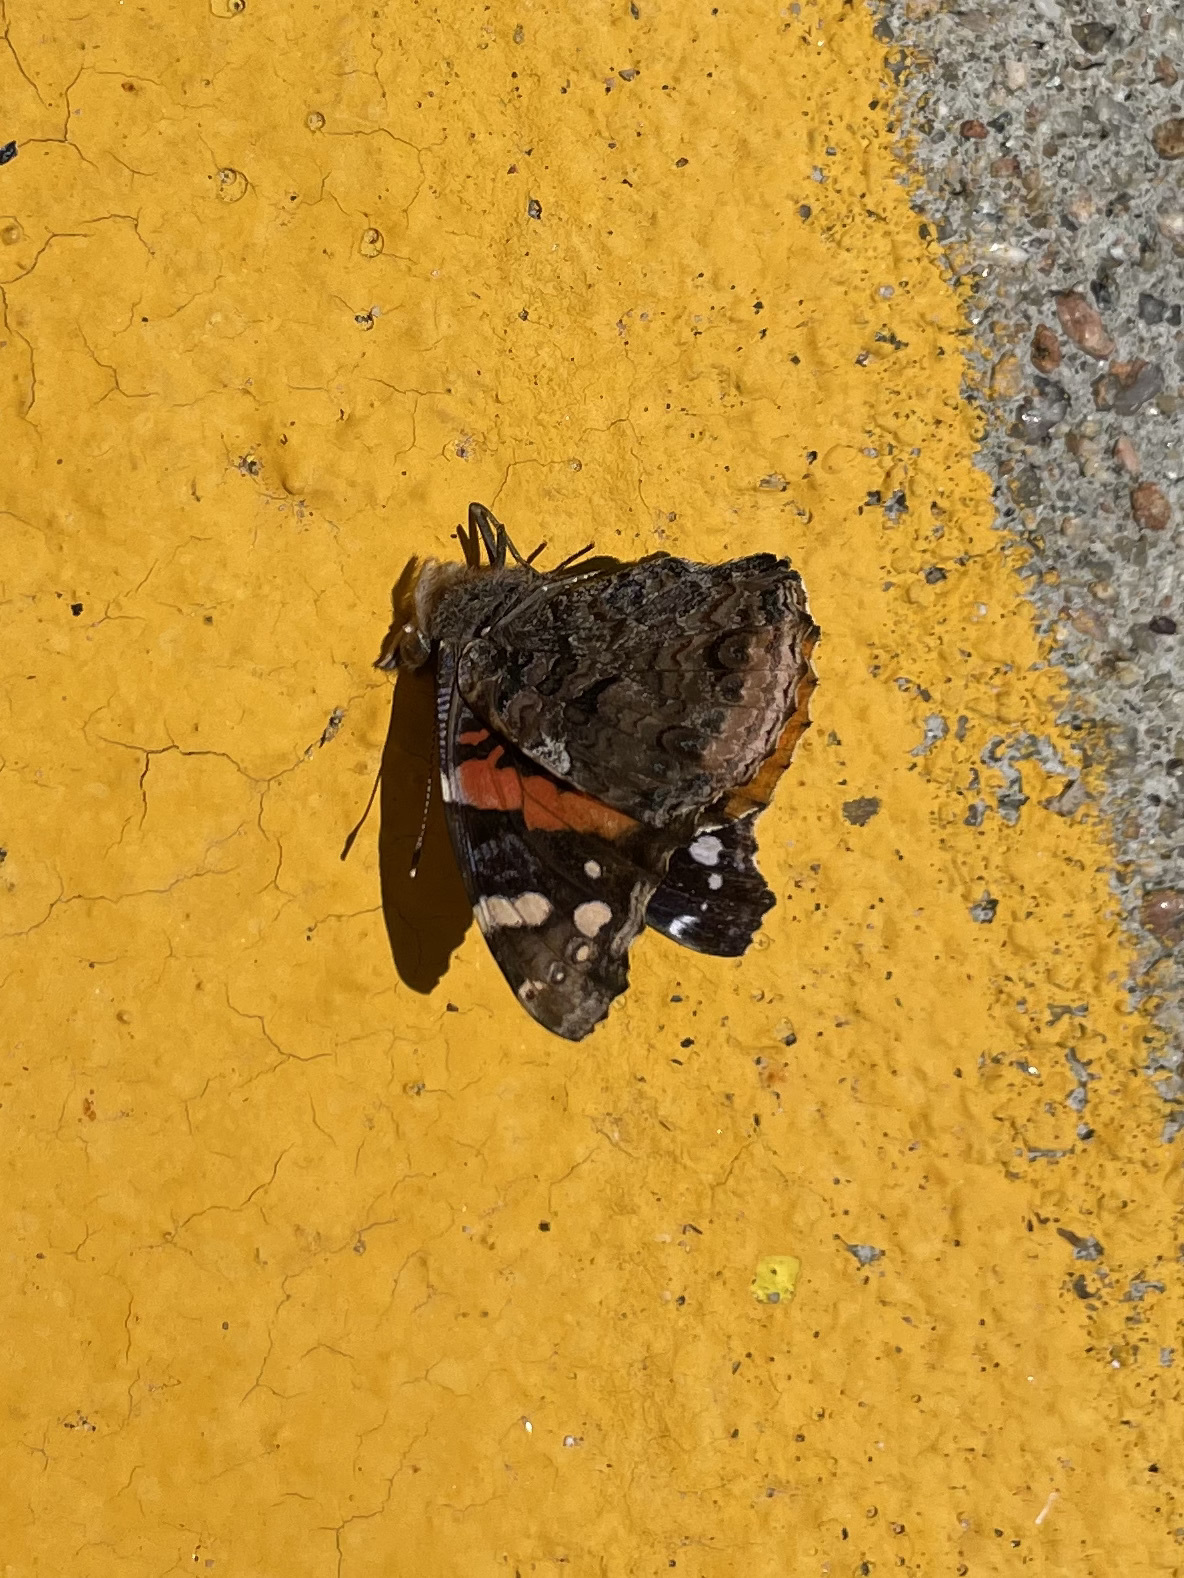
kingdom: Animalia
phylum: Arthropoda
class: Insecta
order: Lepidoptera
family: Nymphalidae
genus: Vanessa
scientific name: Vanessa atalanta
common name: Red admiral
